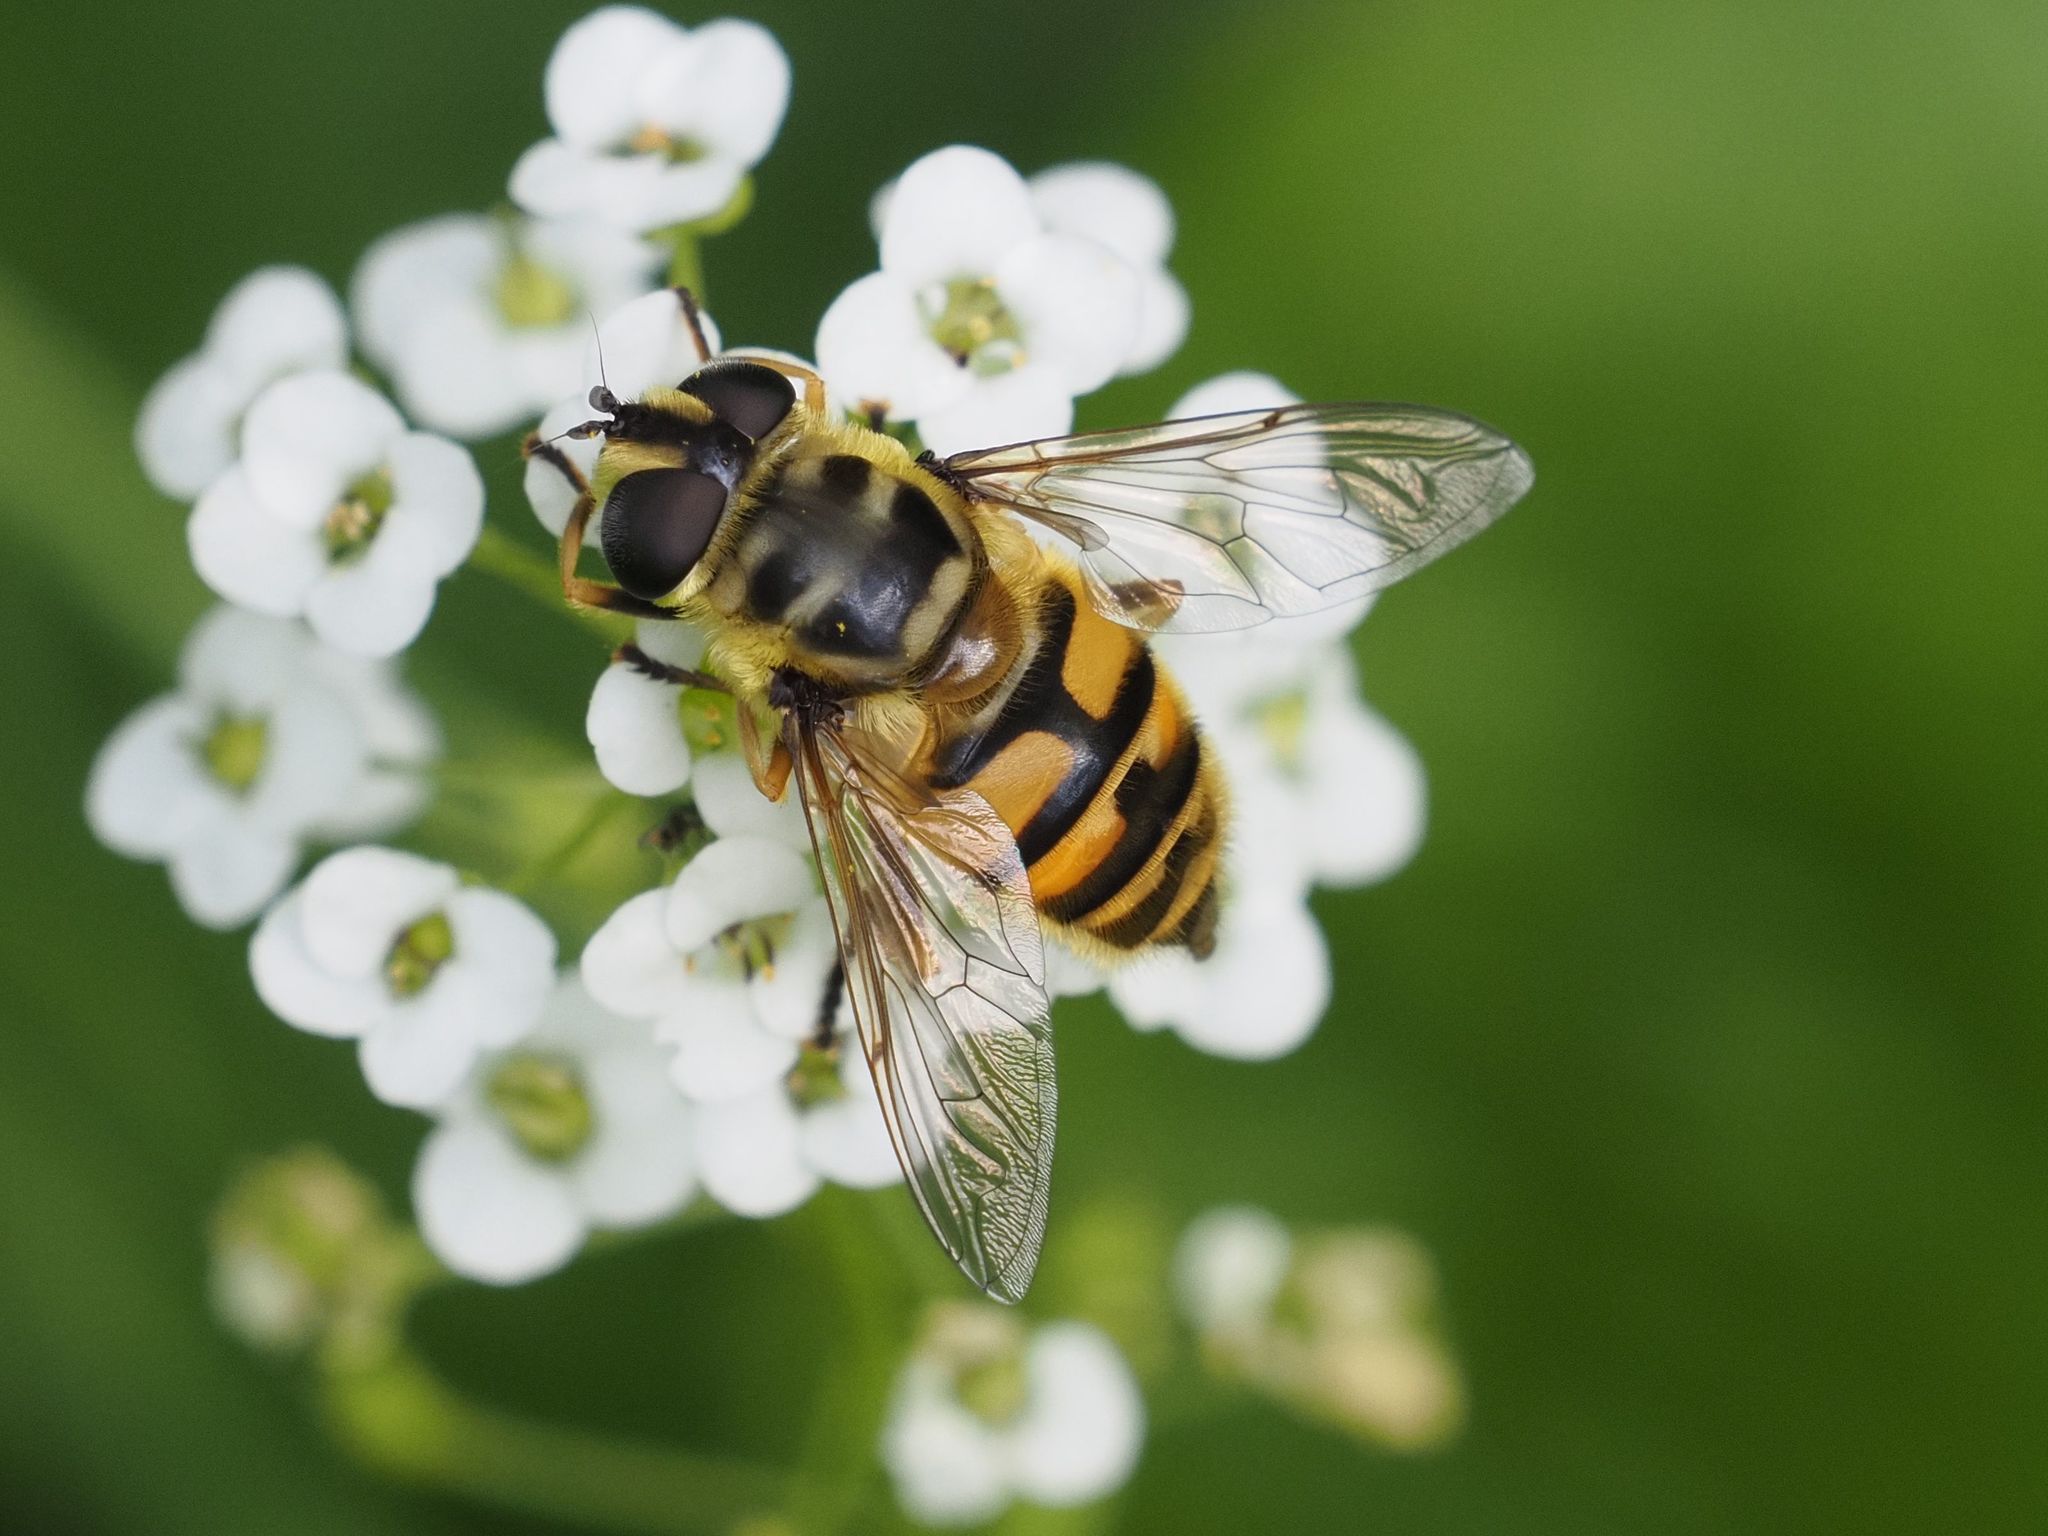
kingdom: Animalia
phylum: Arthropoda
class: Insecta
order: Diptera
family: Syrphidae
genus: Myathropa
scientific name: Myathropa florea
